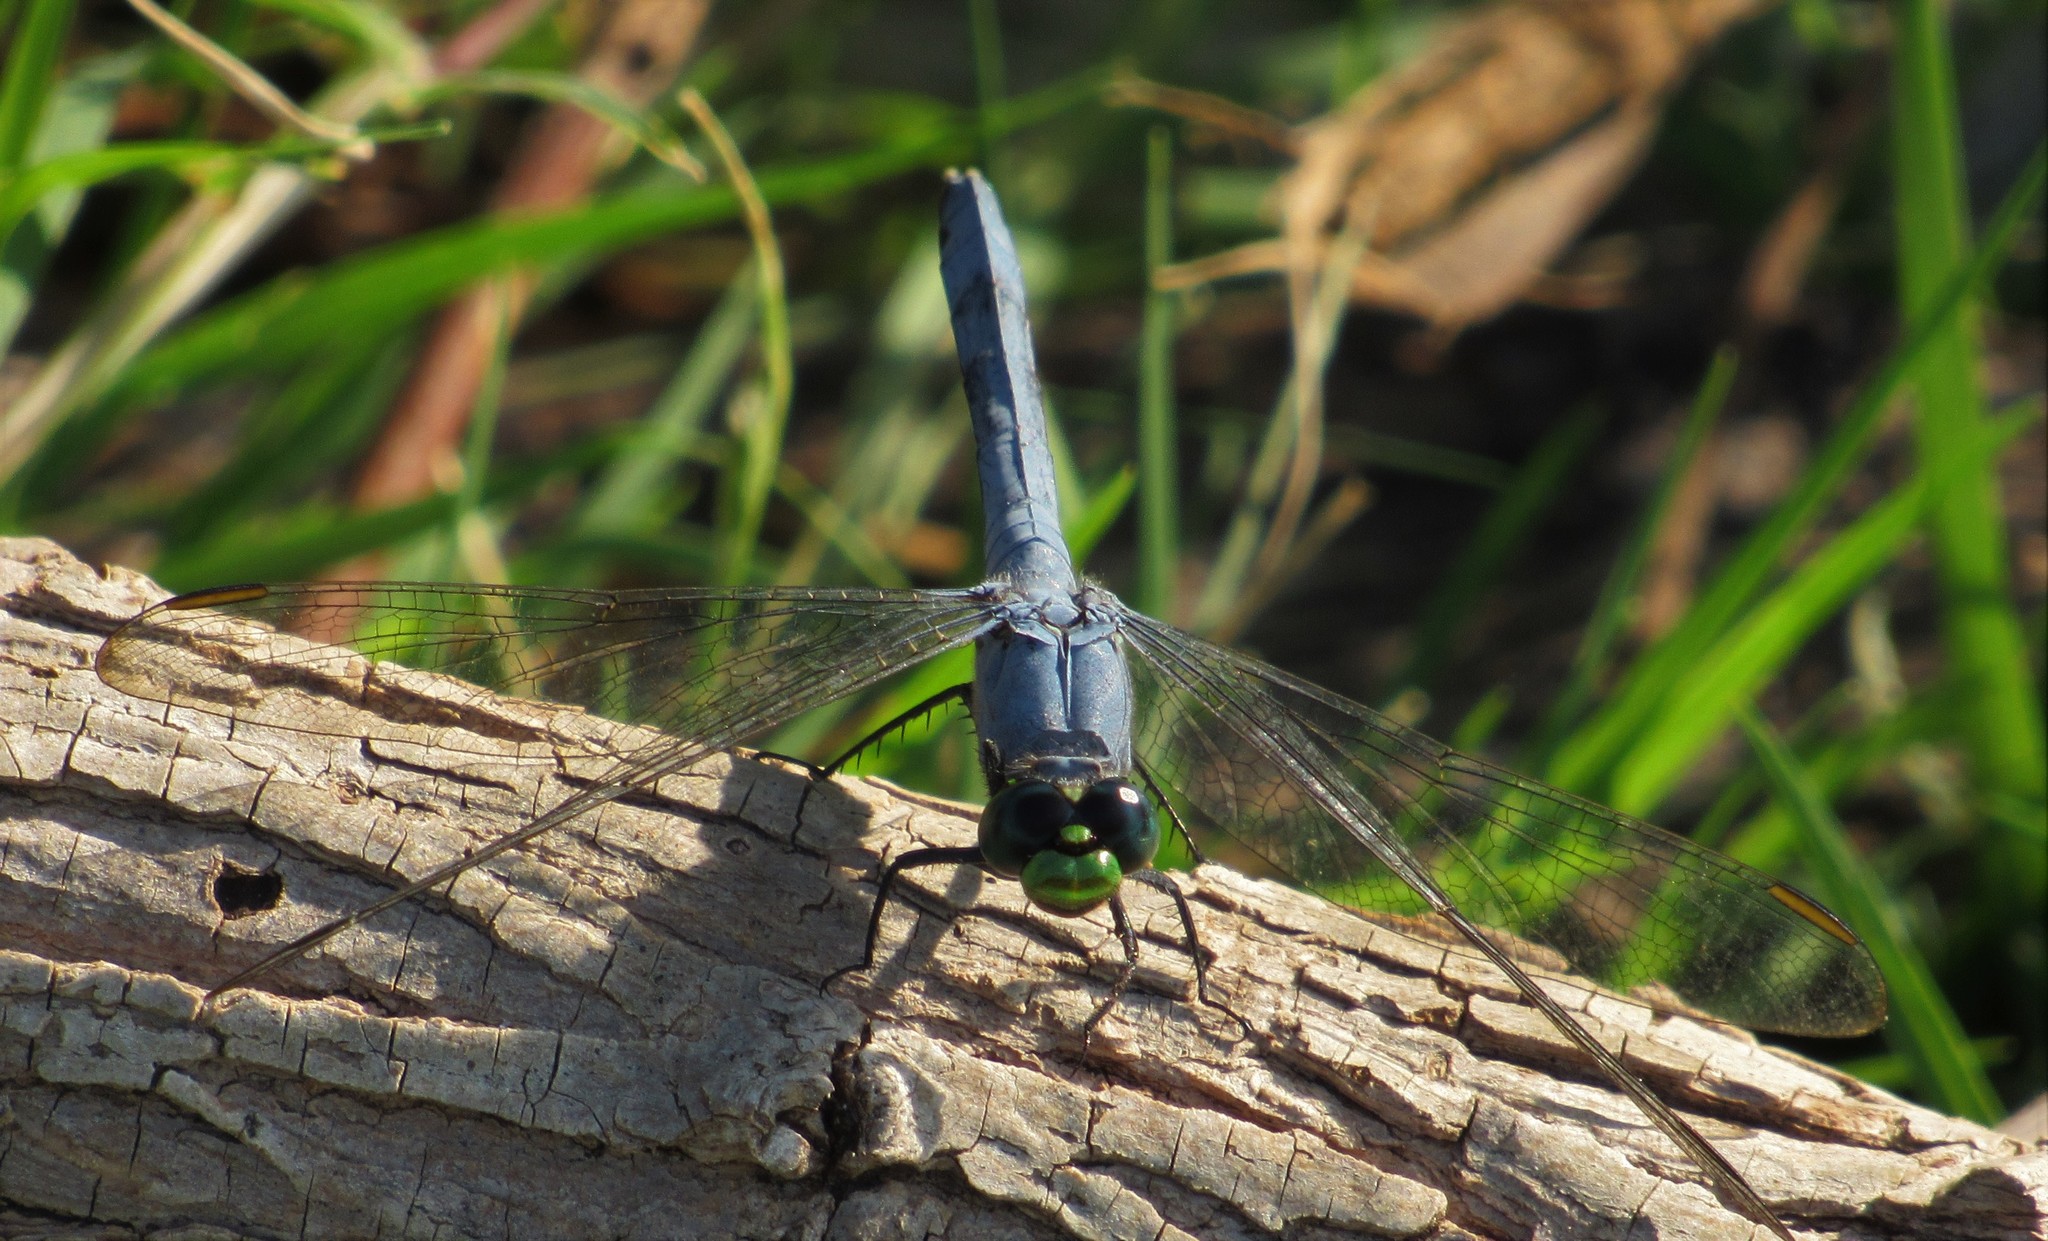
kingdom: Animalia
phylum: Arthropoda
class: Insecta
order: Odonata
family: Libellulidae
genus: Erythemis
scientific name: Erythemis simplicicollis
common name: Eastern pondhawk
